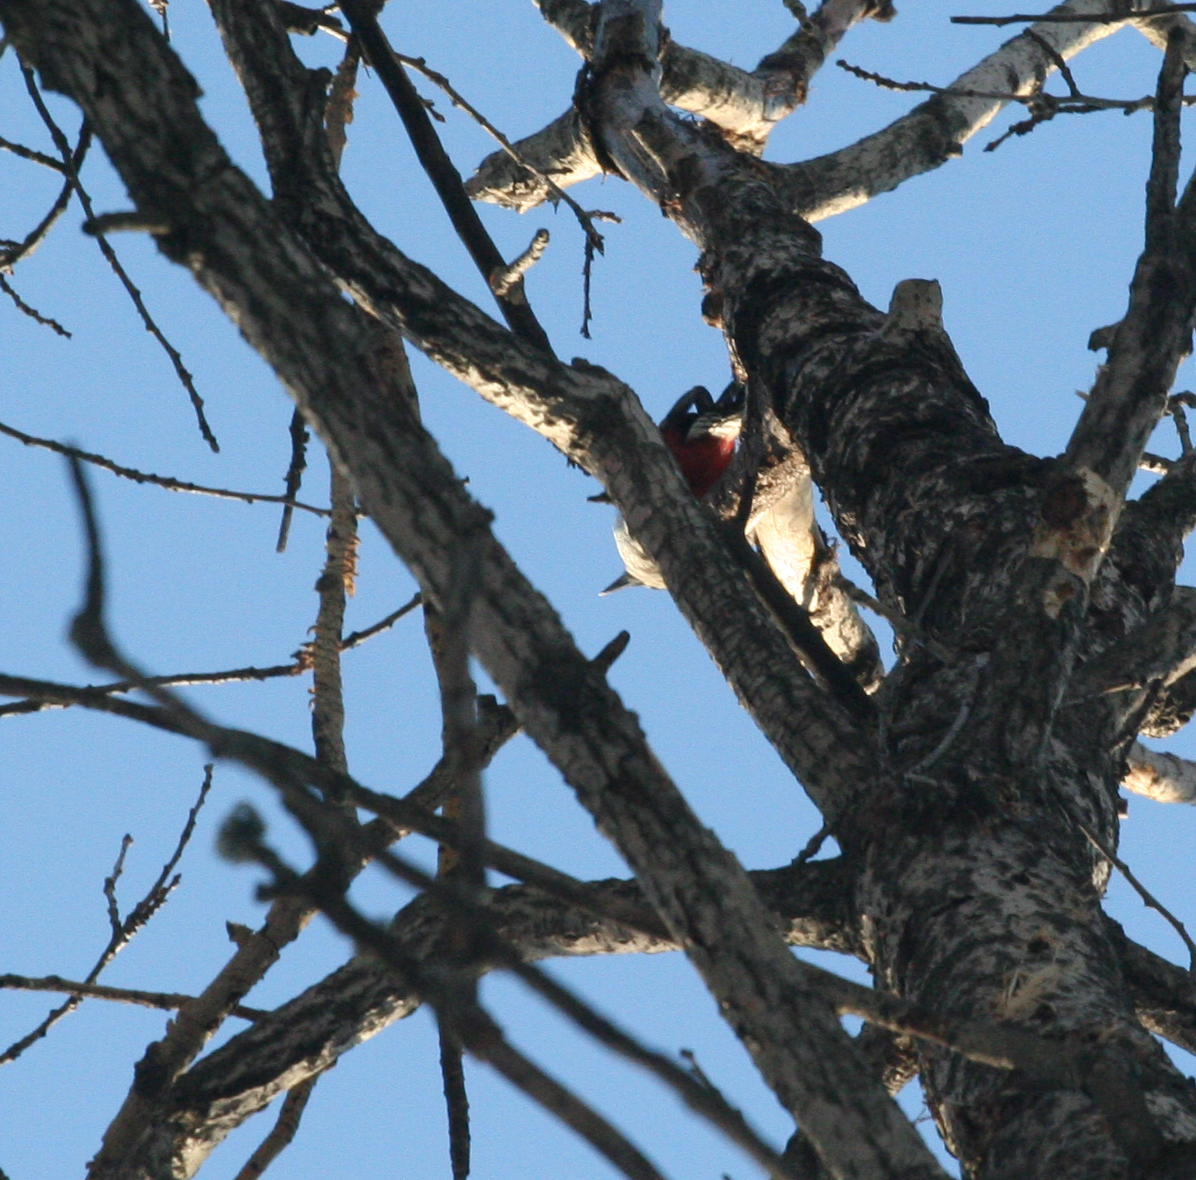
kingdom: Animalia
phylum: Chordata
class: Aves
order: Piciformes
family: Picidae
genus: Dendrocopos
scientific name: Dendrocopos major
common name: Great spotted woodpecker
